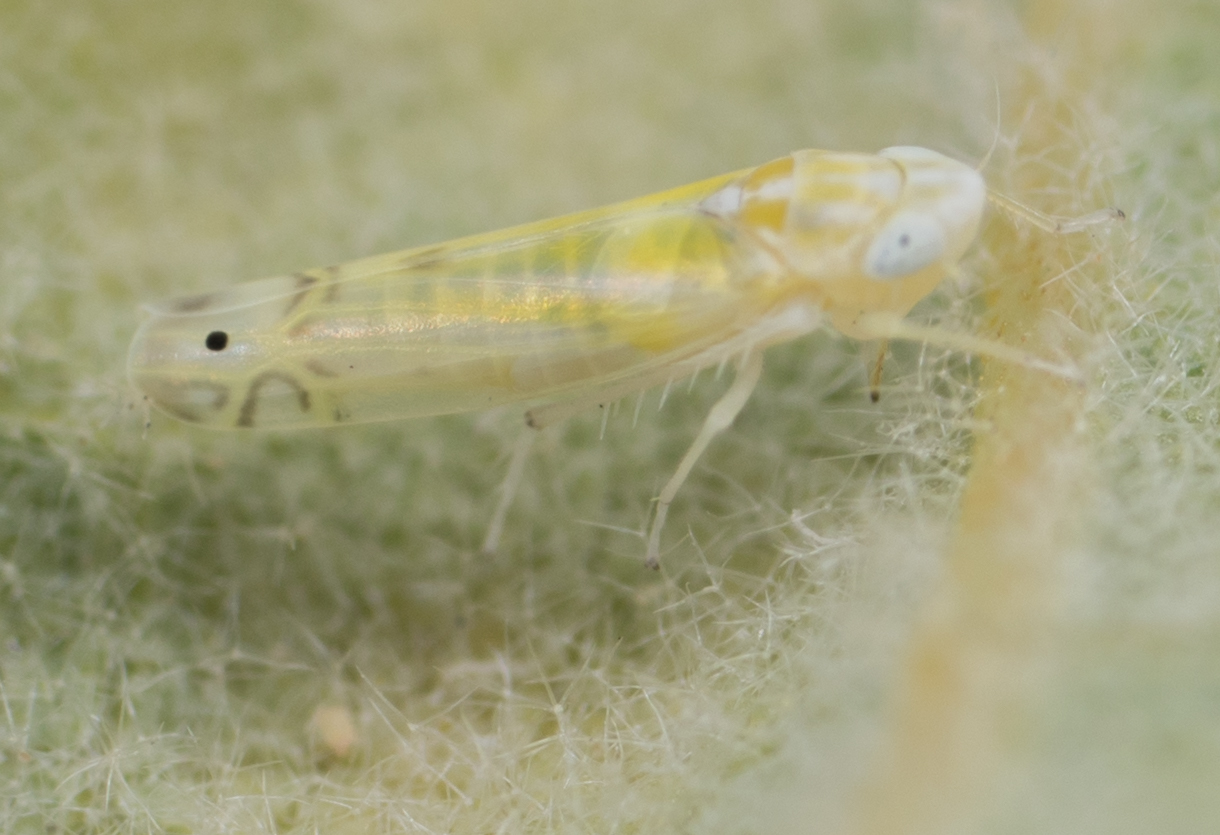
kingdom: Animalia
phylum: Arthropoda
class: Insecta
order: Hemiptera
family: Cicadellidae
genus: Alconeura
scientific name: Alconeura quadrimaculata
